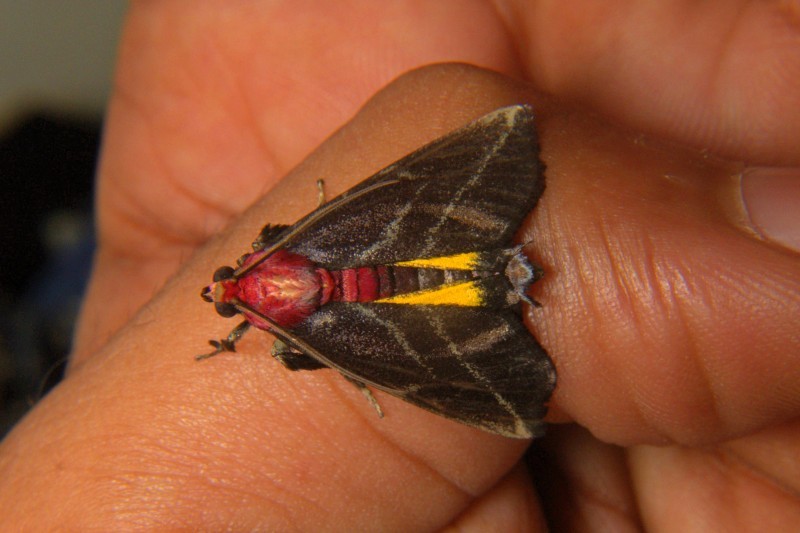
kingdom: Animalia
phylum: Arthropoda
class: Insecta
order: Lepidoptera
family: Pyralidae
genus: Toccolosida
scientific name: Toccolosida rubriceps
